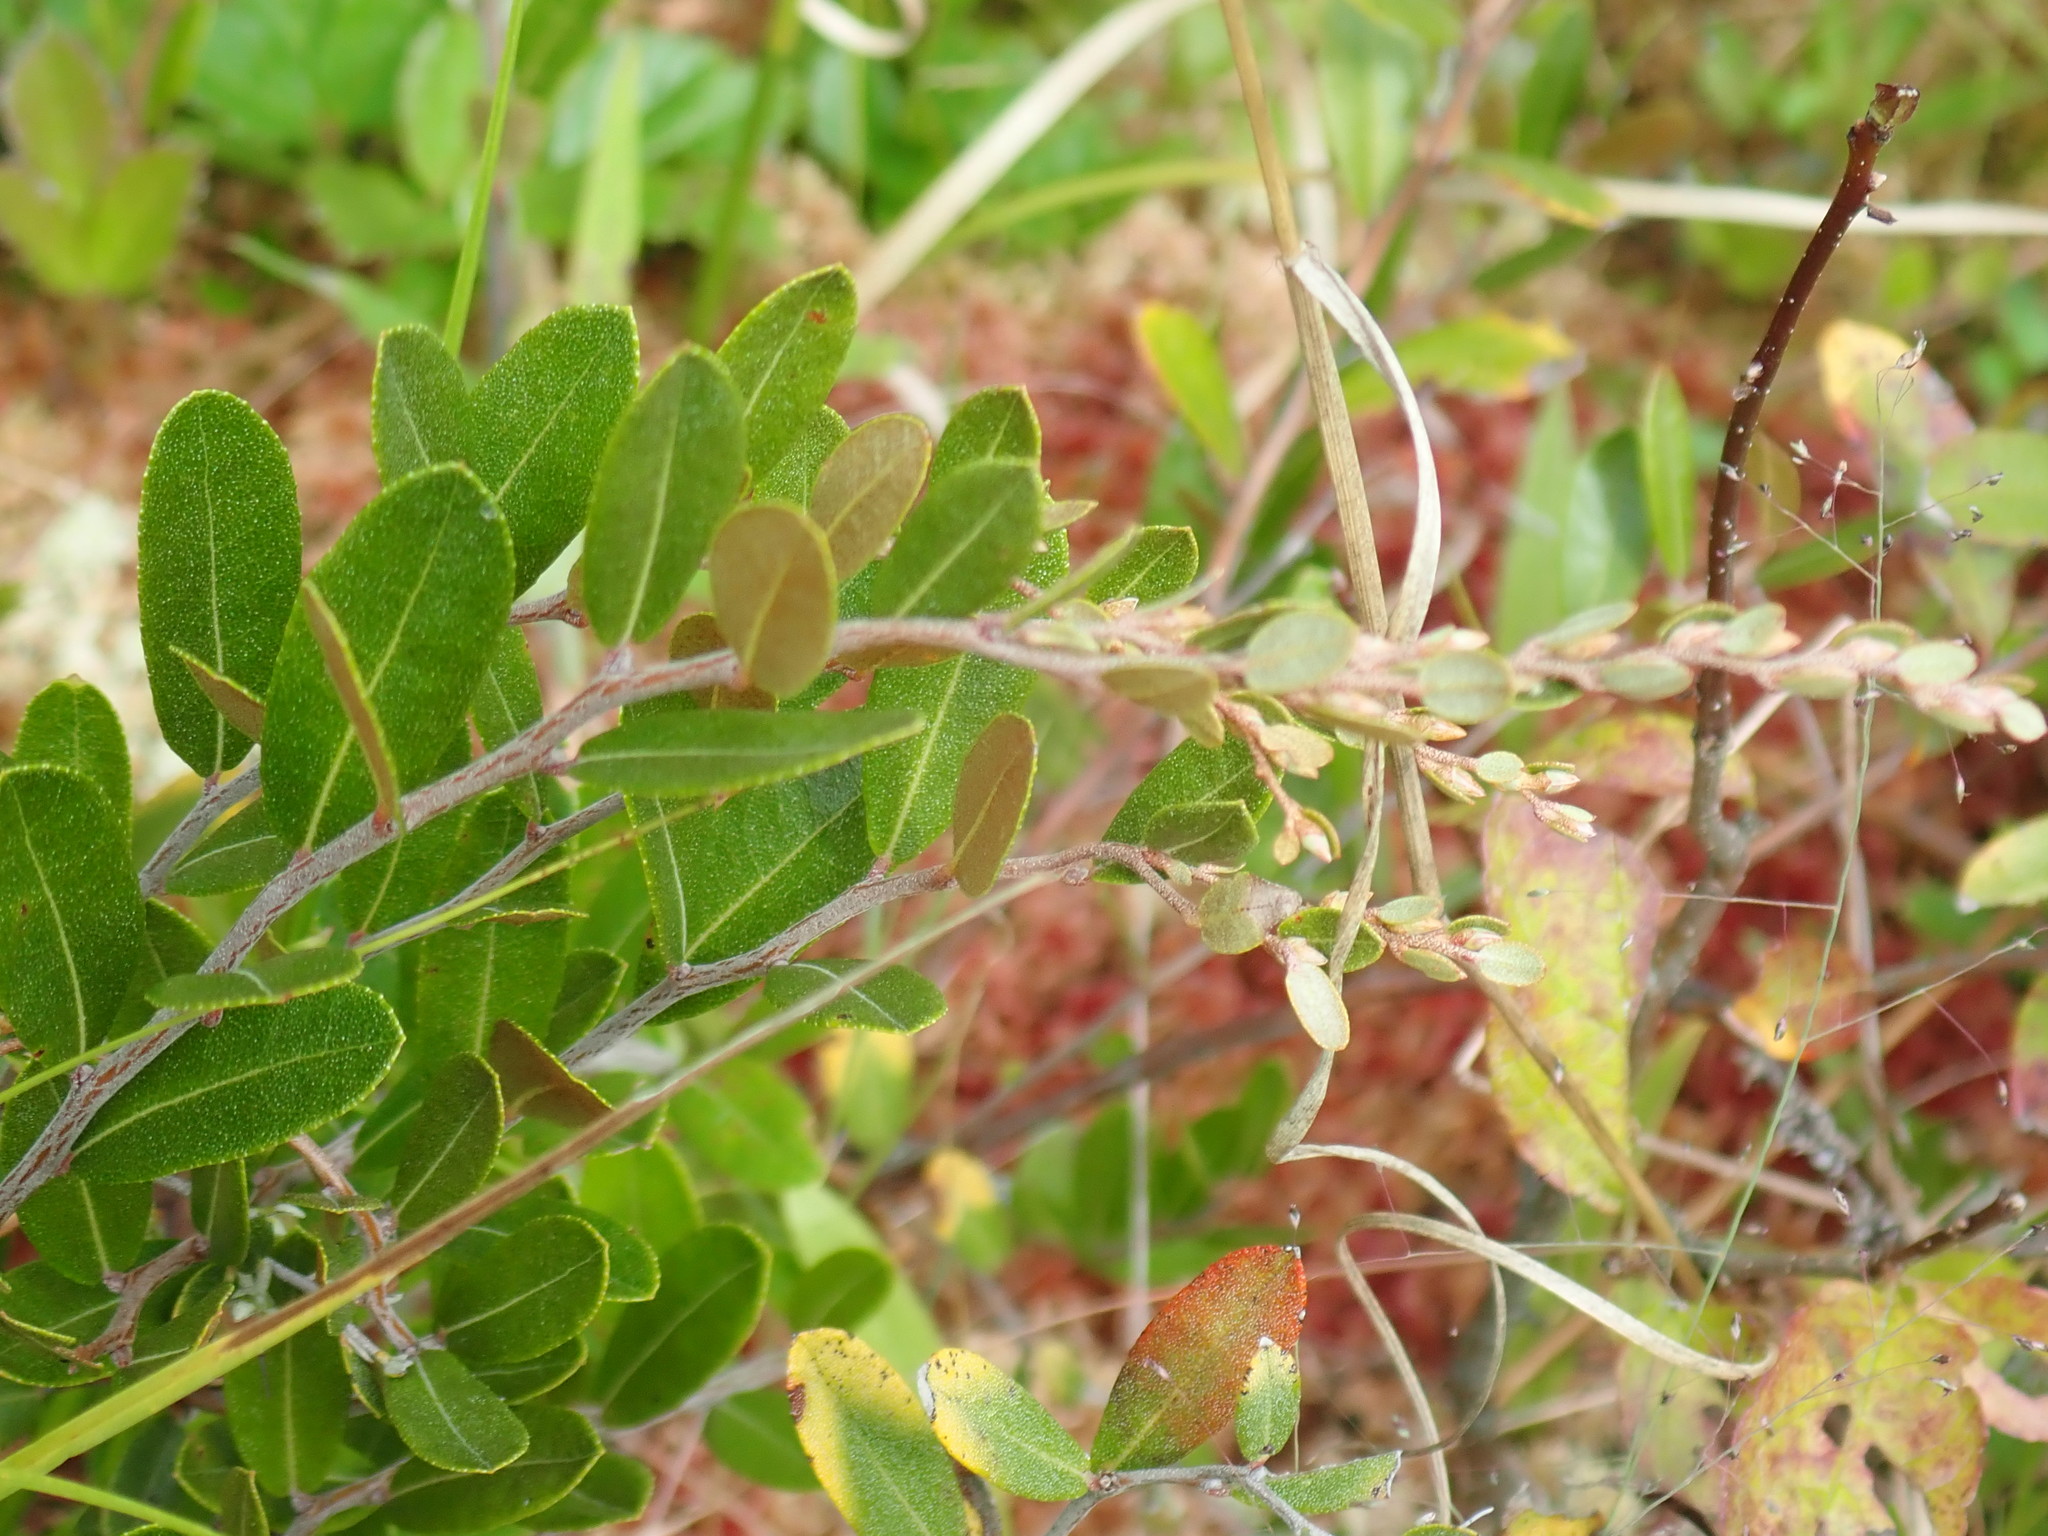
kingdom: Plantae
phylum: Tracheophyta
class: Magnoliopsida
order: Ericales
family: Ericaceae
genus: Chamaedaphne
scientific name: Chamaedaphne calyculata
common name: Leatherleaf
